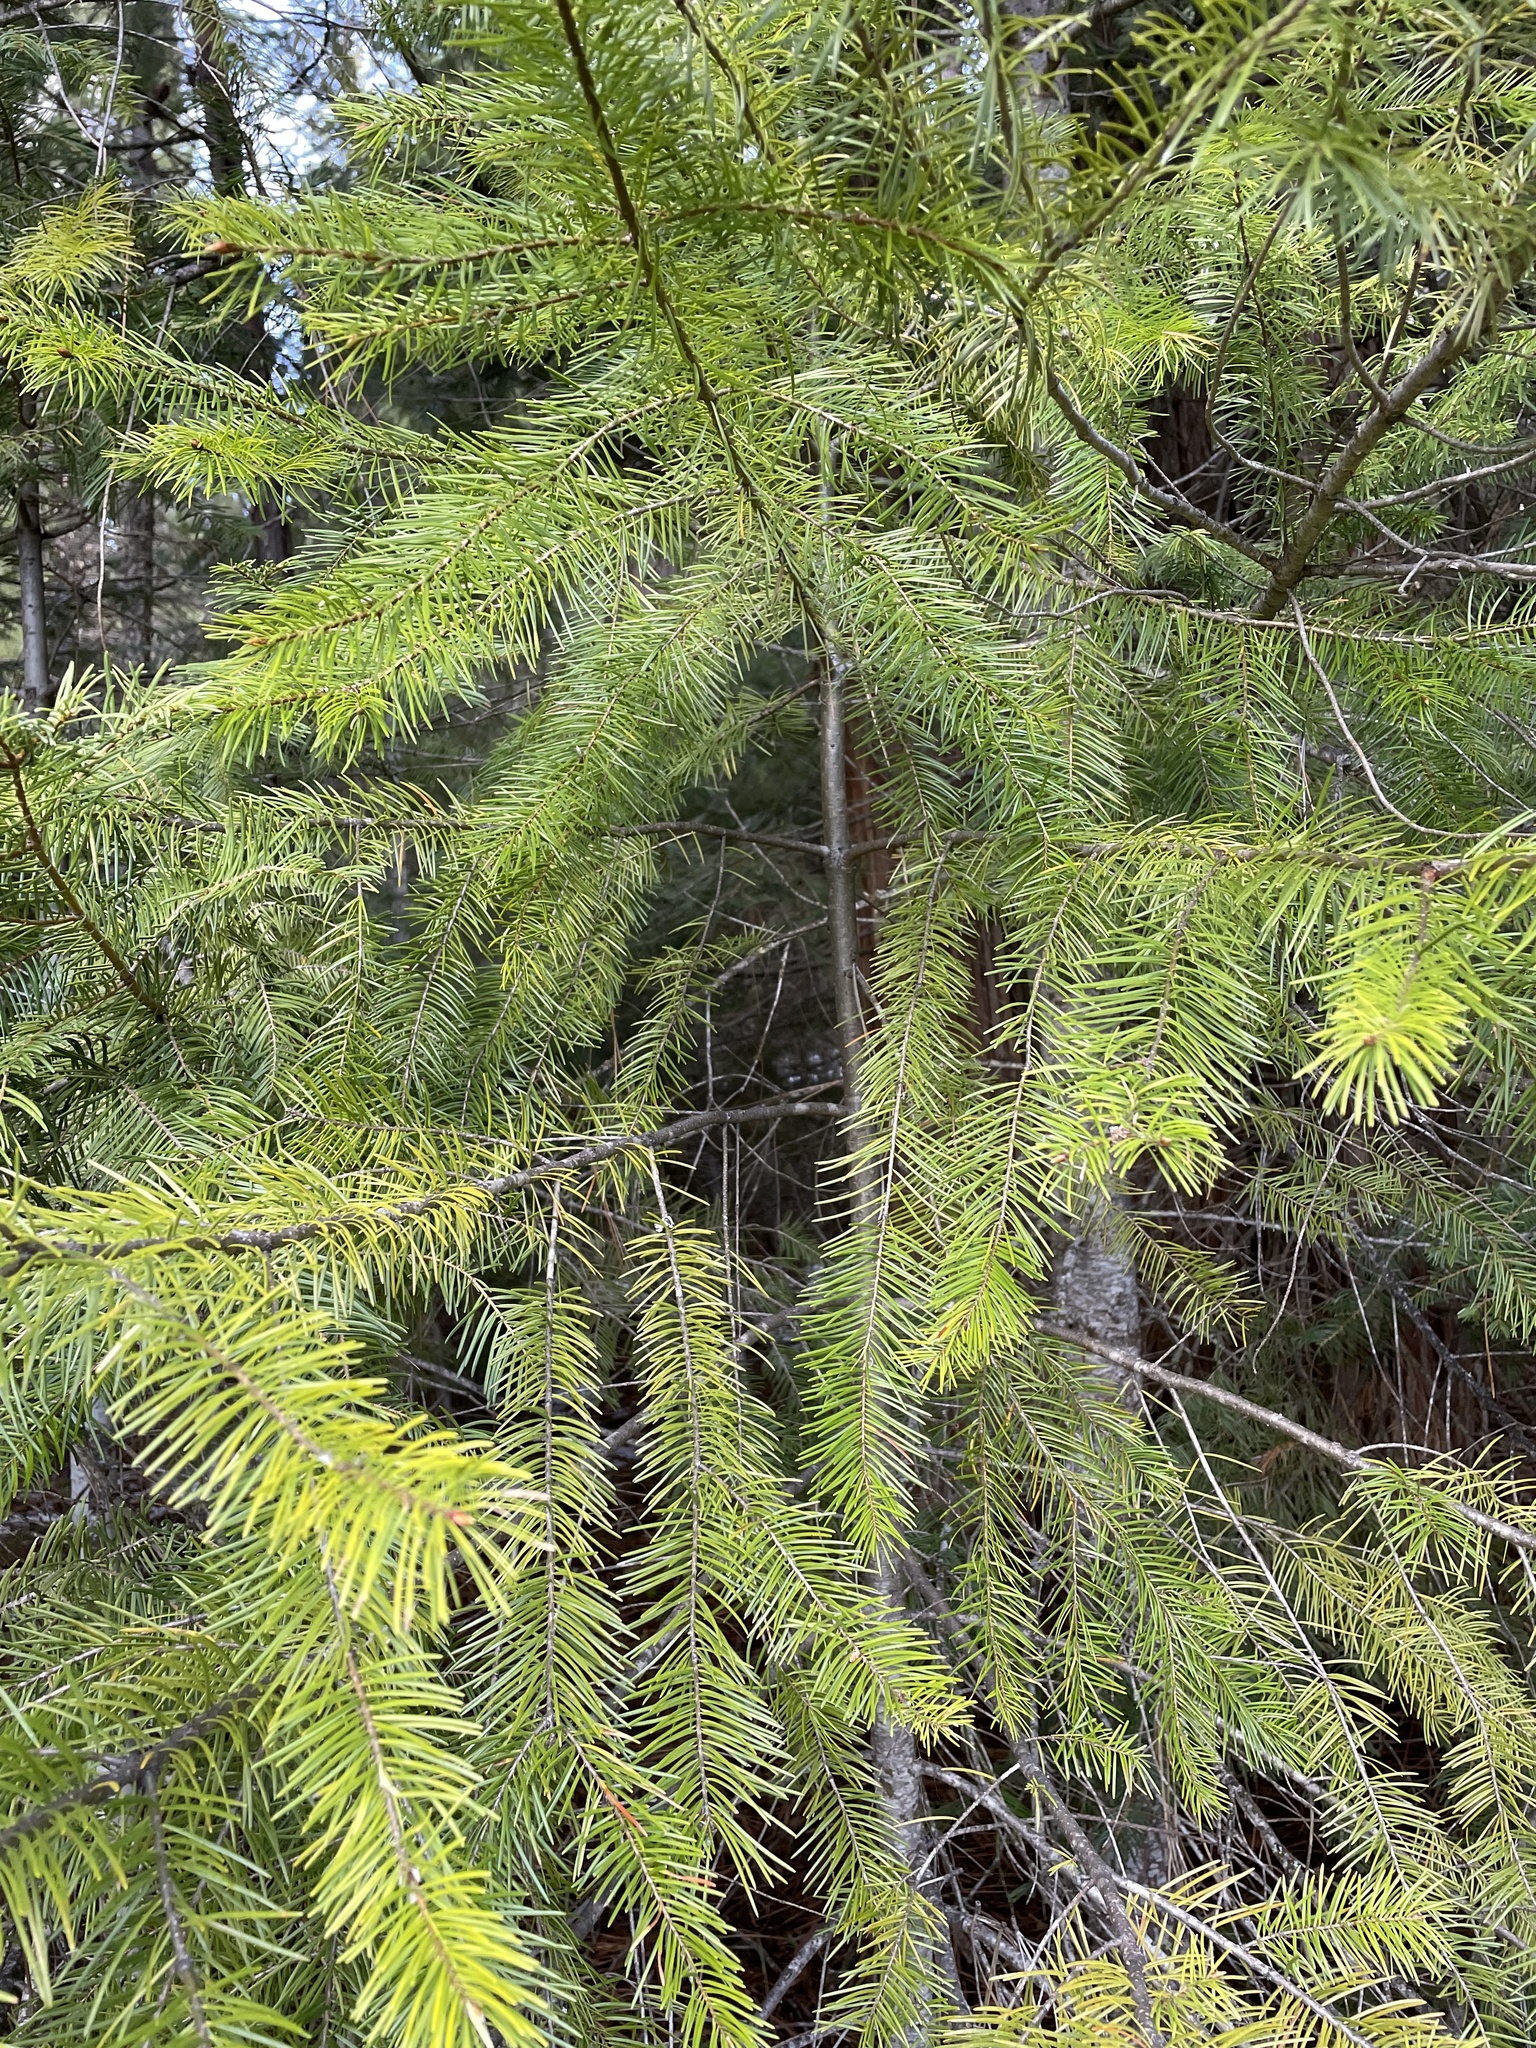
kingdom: Plantae
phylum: Tracheophyta
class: Pinopsida
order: Pinales
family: Pinaceae
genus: Pseudotsuga
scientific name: Pseudotsuga menziesii
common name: Douglas fir
